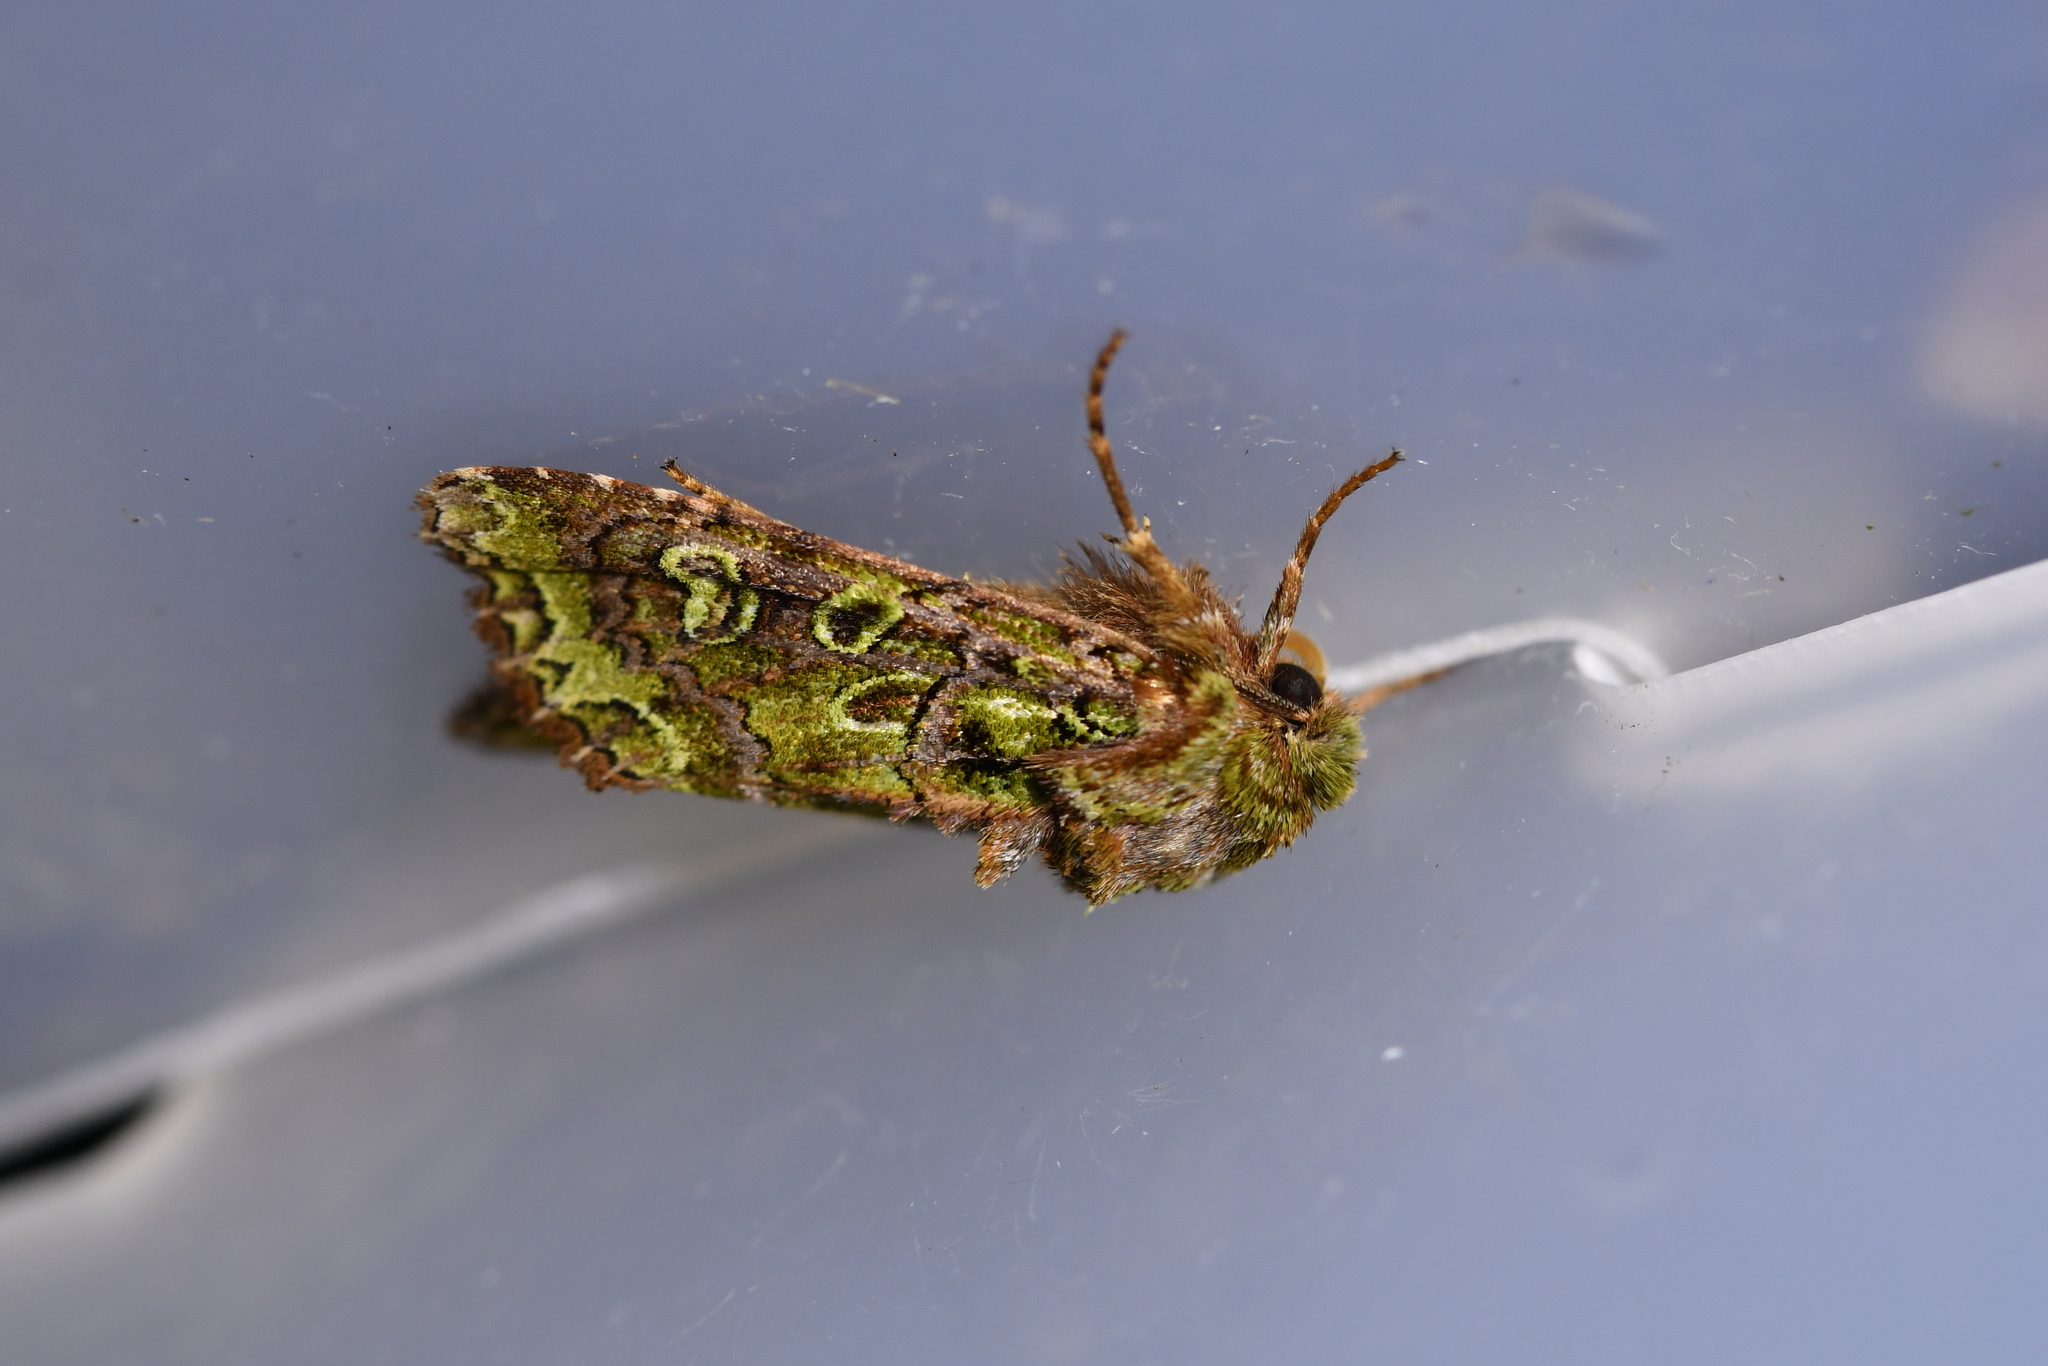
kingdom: Animalia
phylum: Arthropoda
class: Insecta
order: Lepidoptera
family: Noctuidae
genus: Ichneutica
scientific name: Ichneutica chlorodonta
